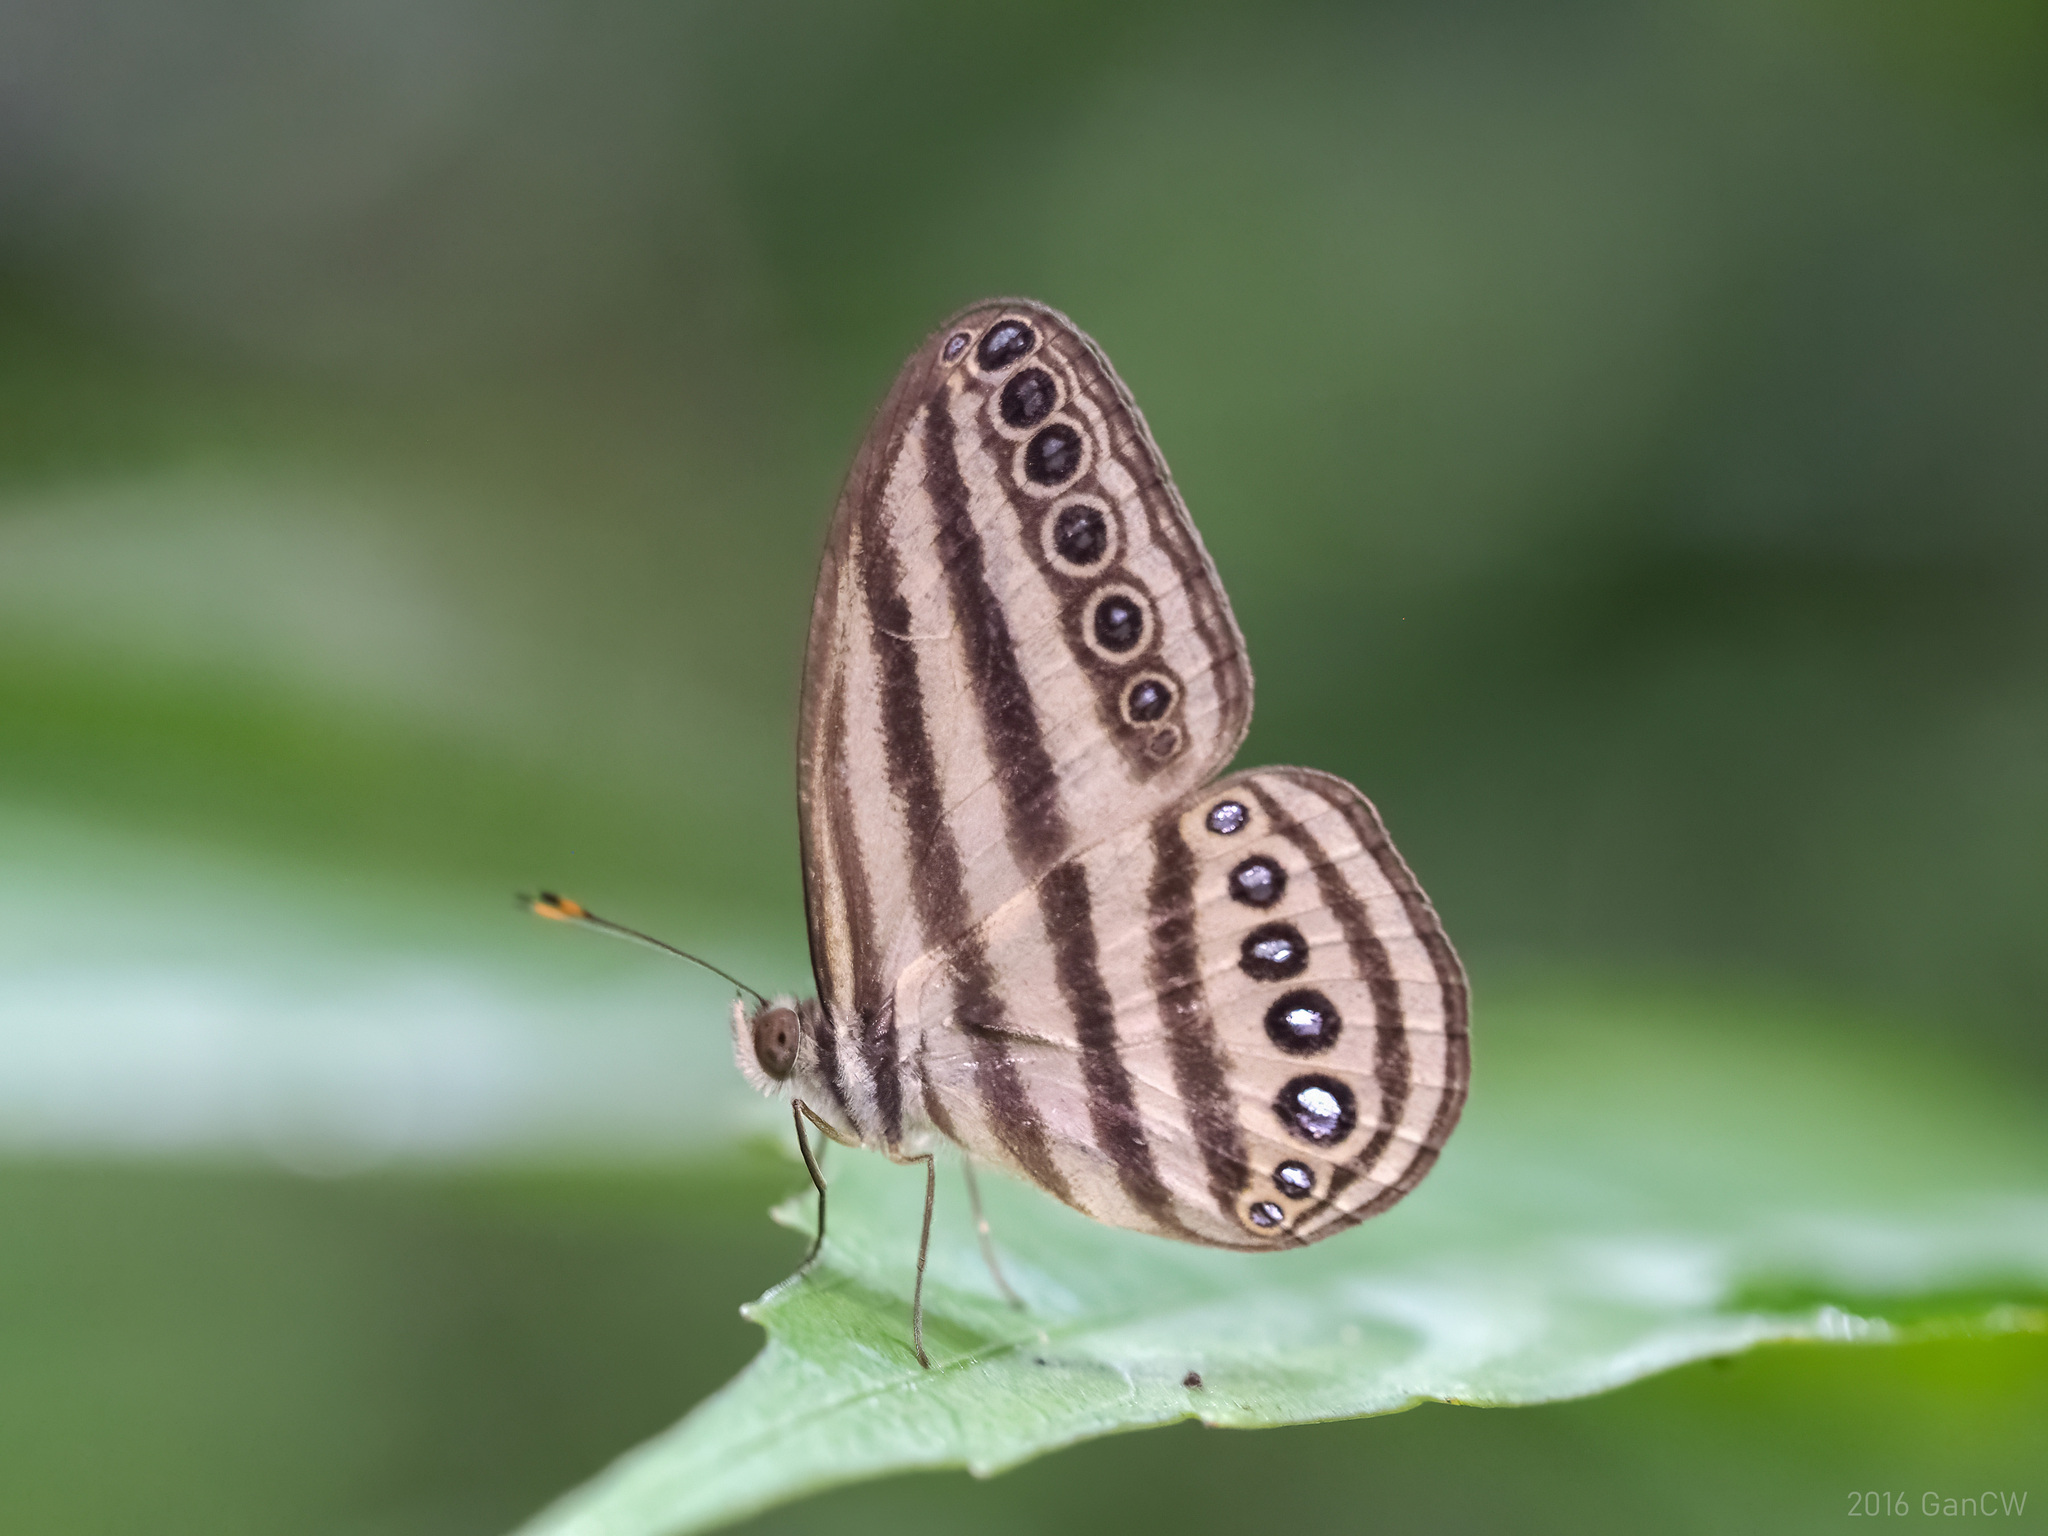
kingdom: Animalia
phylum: Arthropoda
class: Insecta
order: Lepidoptera
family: Nymphalidae
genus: Ragadia
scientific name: Ragadia makuta
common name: Striped ringlet
